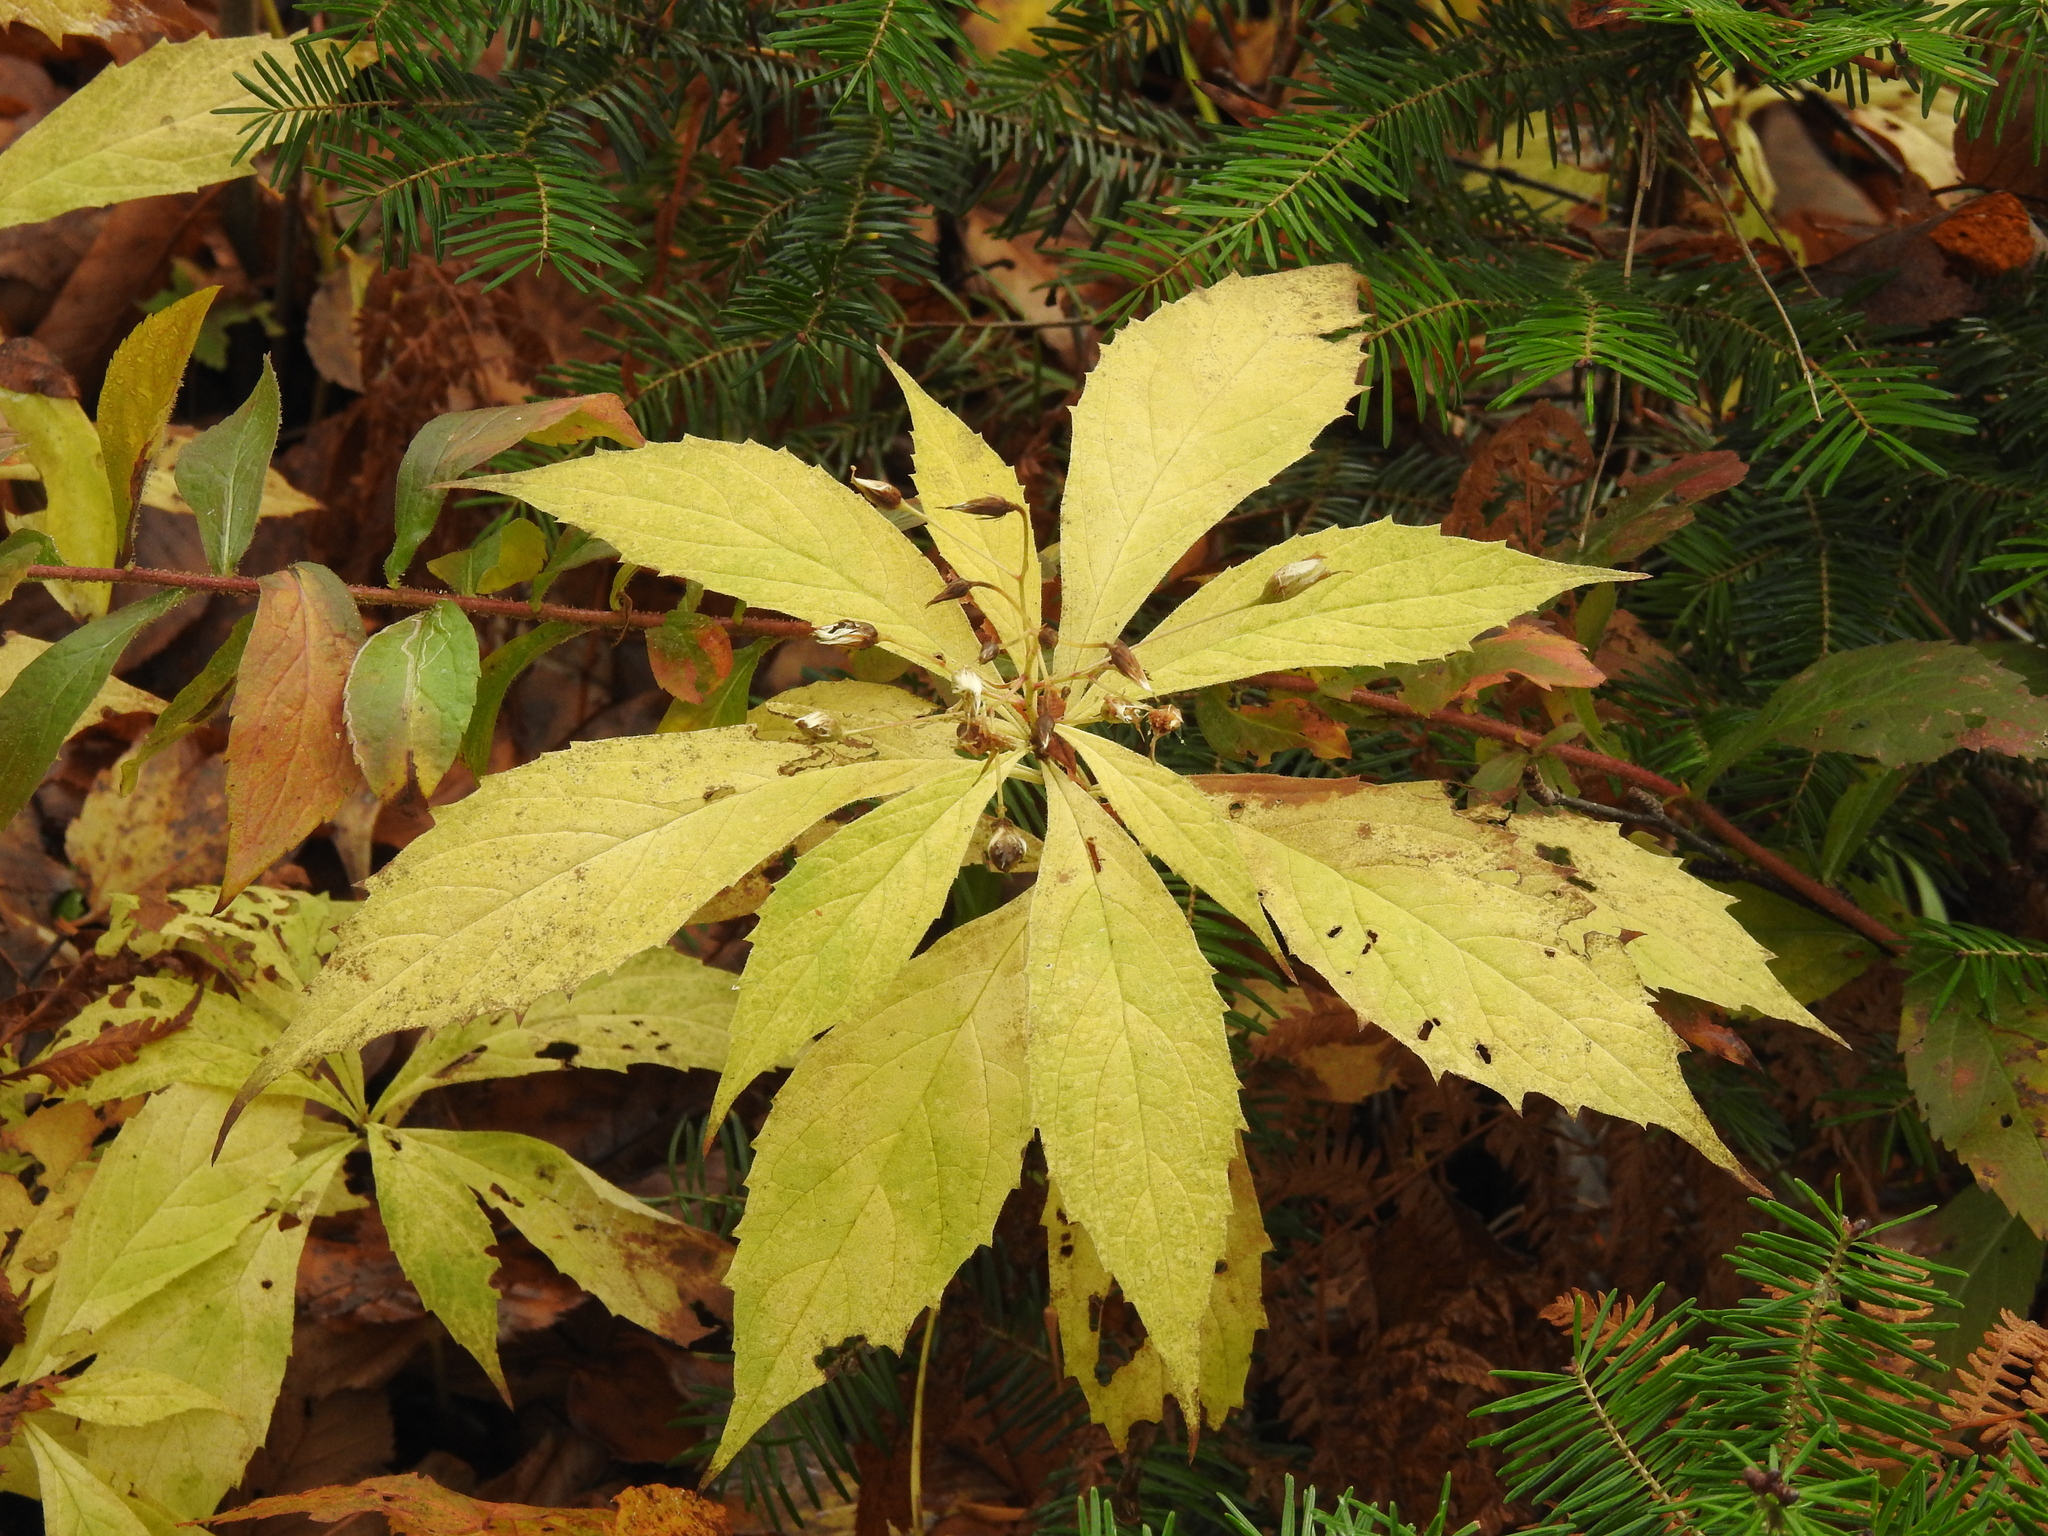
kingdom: Plantae
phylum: Tracheophyta
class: Magnoliopsida
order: Asterales
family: Asteraceae
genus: Oclemena
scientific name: Oclemena acuminata
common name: Mountain aster
